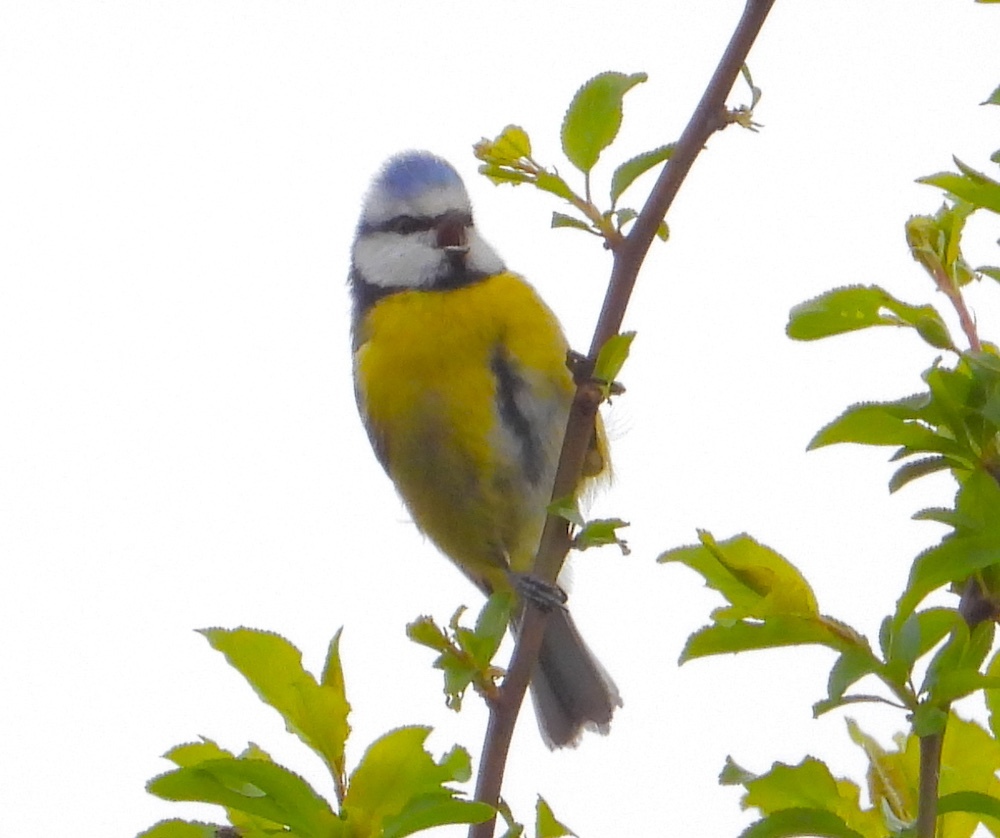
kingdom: Animalia
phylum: Chordata
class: Aves
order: Passeriformes
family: Paridae
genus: Cyanistes
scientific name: Cyanistes caeruleus
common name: Eurasian blue tit
